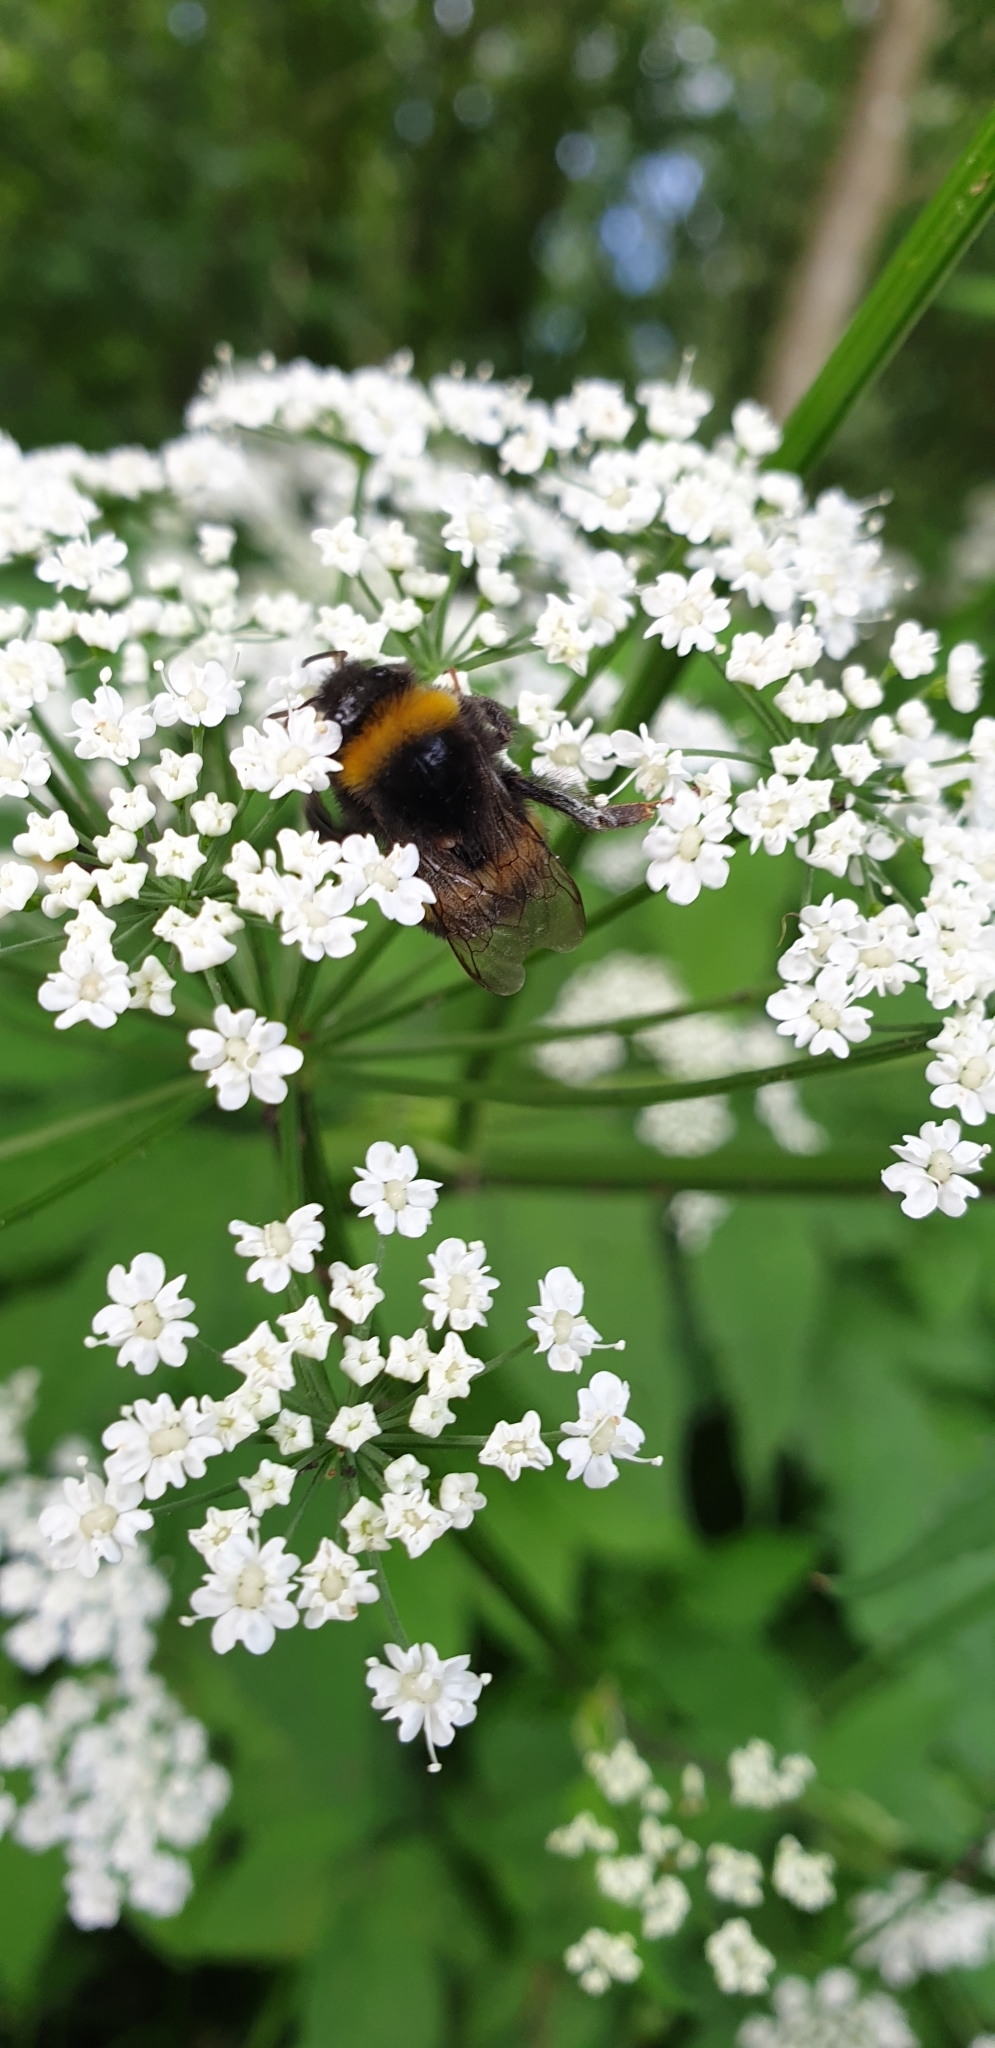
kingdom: Animalia
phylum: Arthropoda
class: Insecta
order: Hymenoptera
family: Apidae
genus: Bombus
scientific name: Bombus terrestris
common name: Buff-tailed bumblebee
